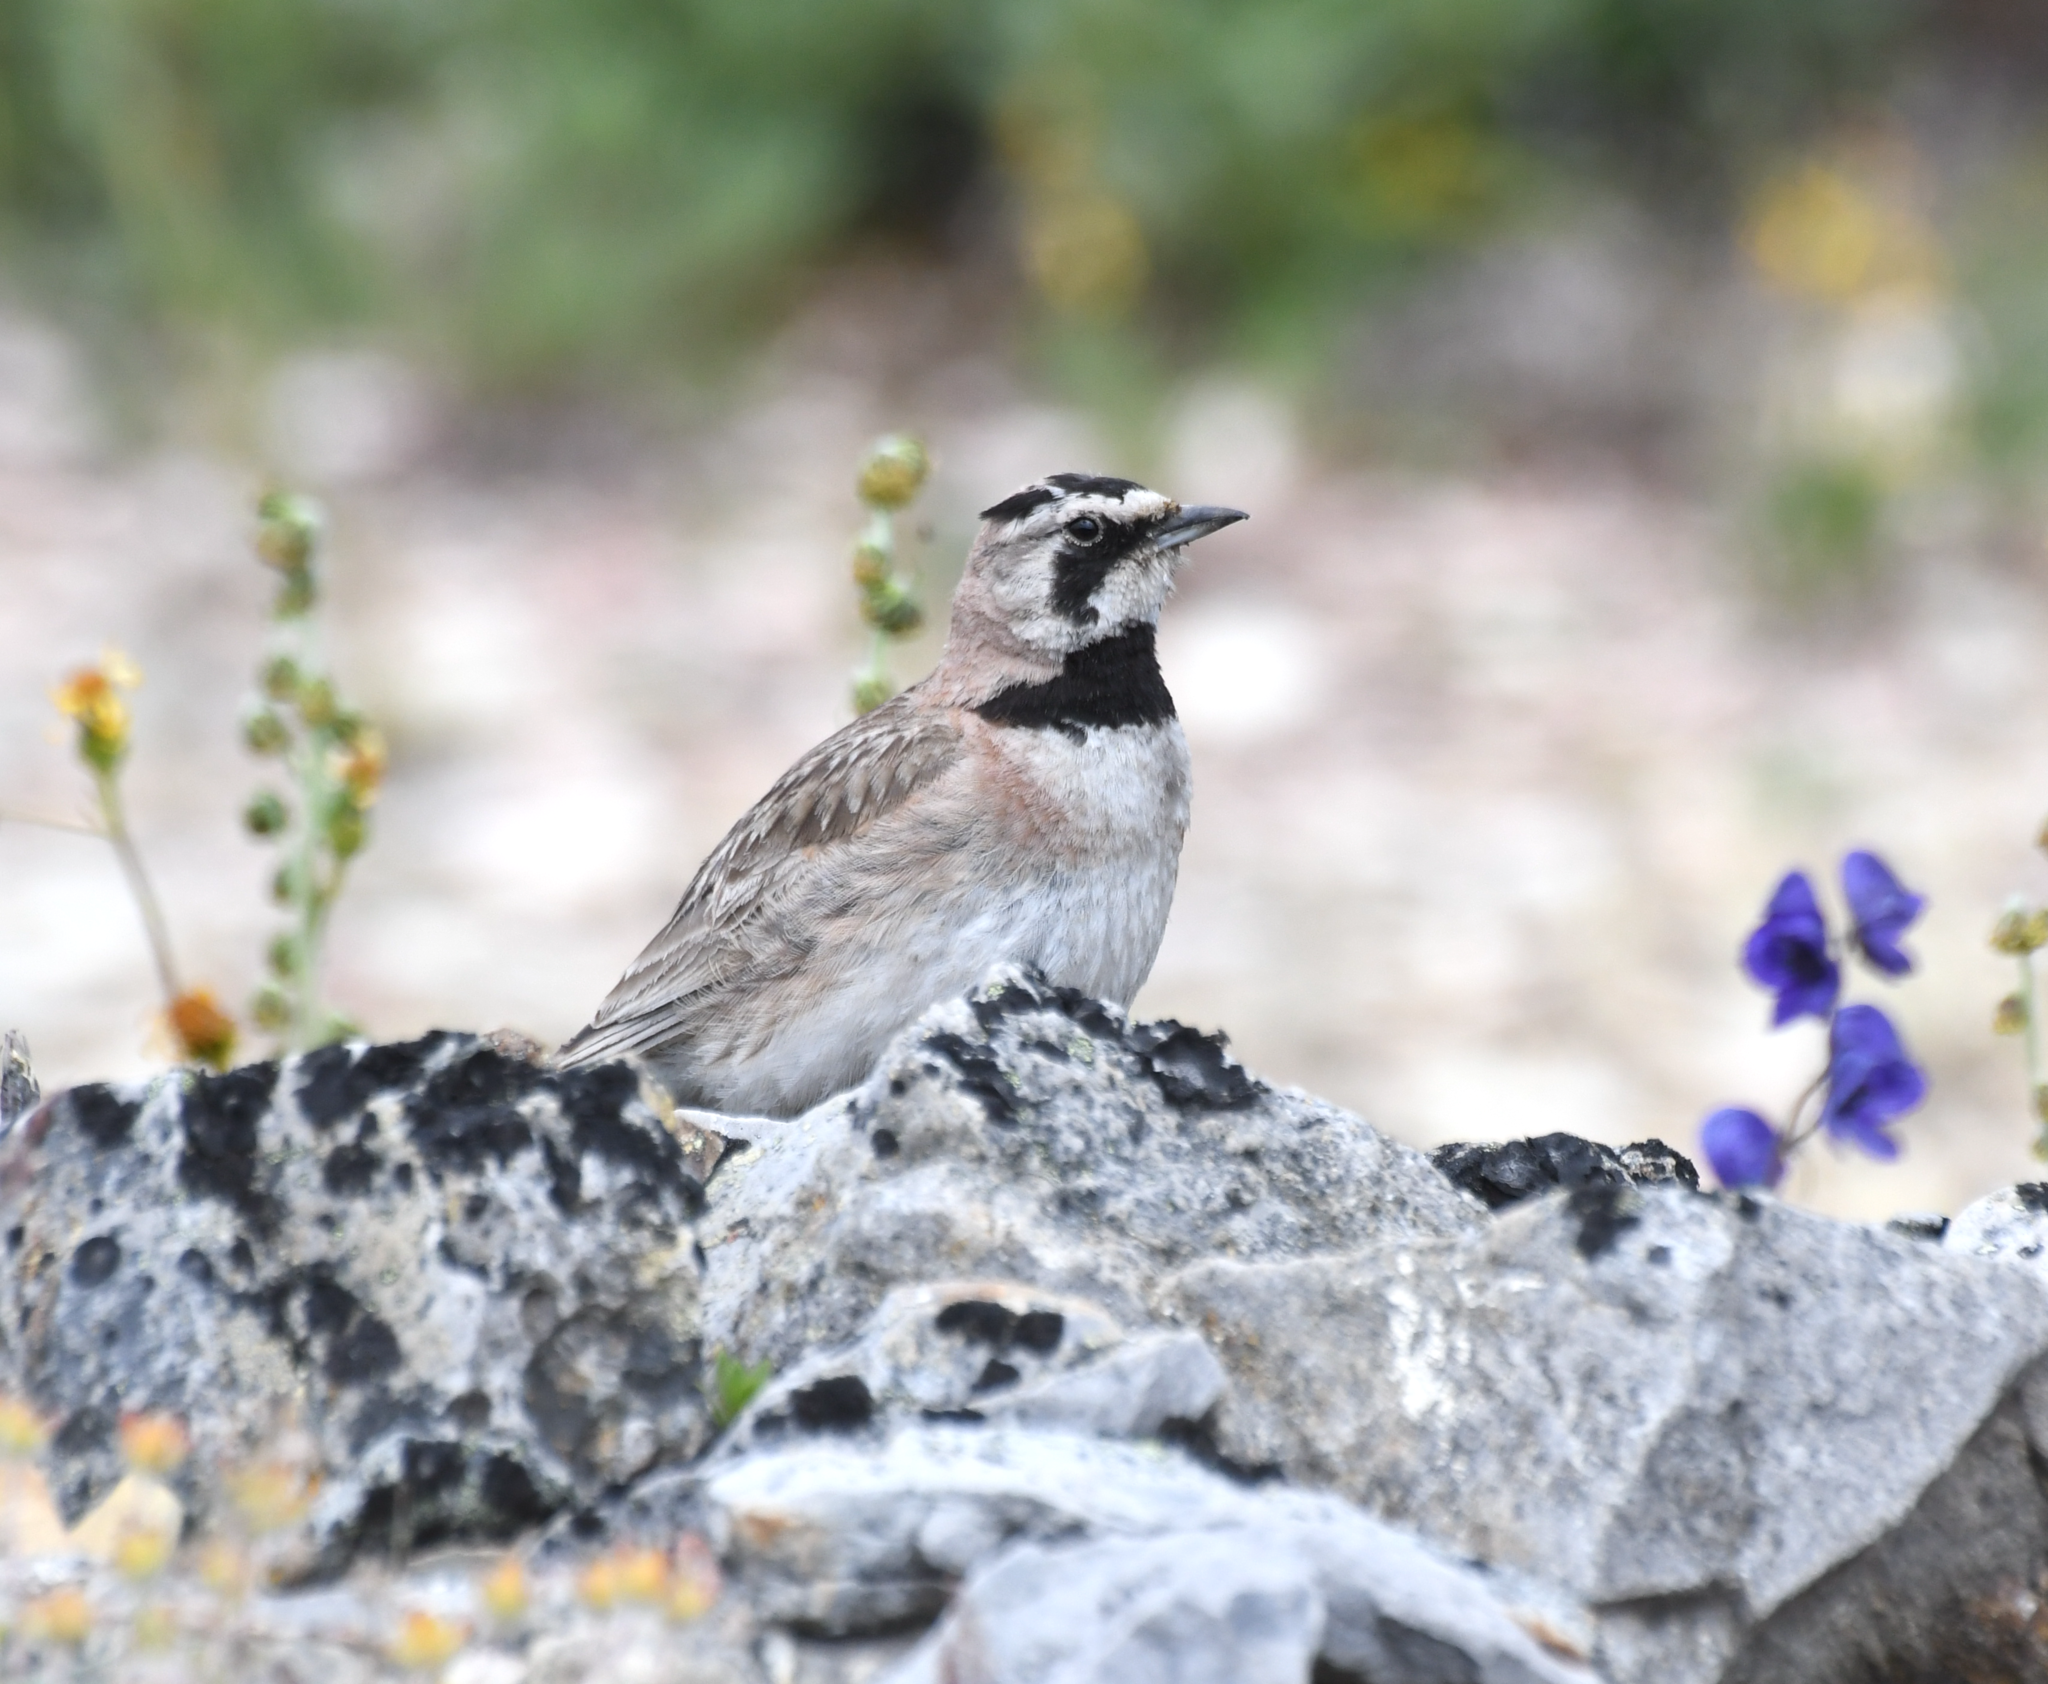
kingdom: Animalia
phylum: Chordata
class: Aves
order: Passeriformes
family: Alaudidae
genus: Eremophila
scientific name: Eremophila alpestris
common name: Horned lark
